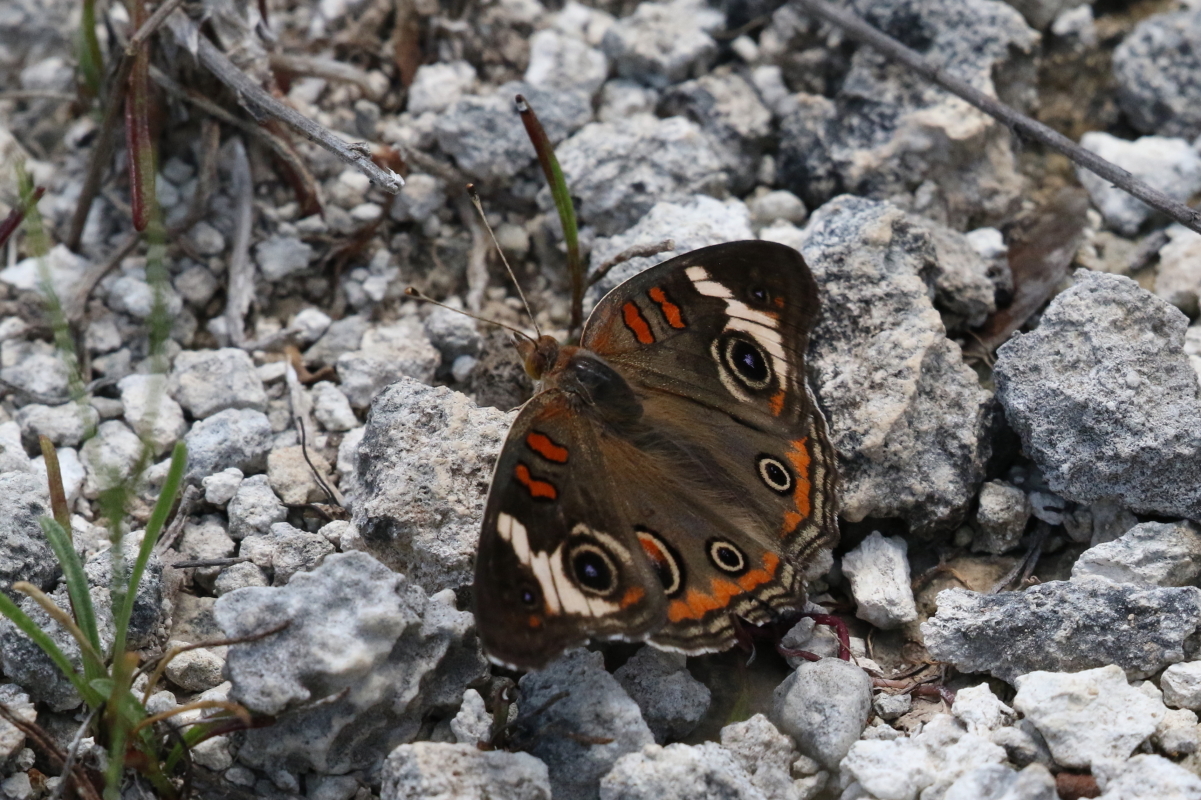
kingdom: Animalia
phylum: Arthropoda
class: Insecta
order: Lepidoptera
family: Nymphalidae
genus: Junonia
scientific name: Junonia coenia
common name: Common buckeye
